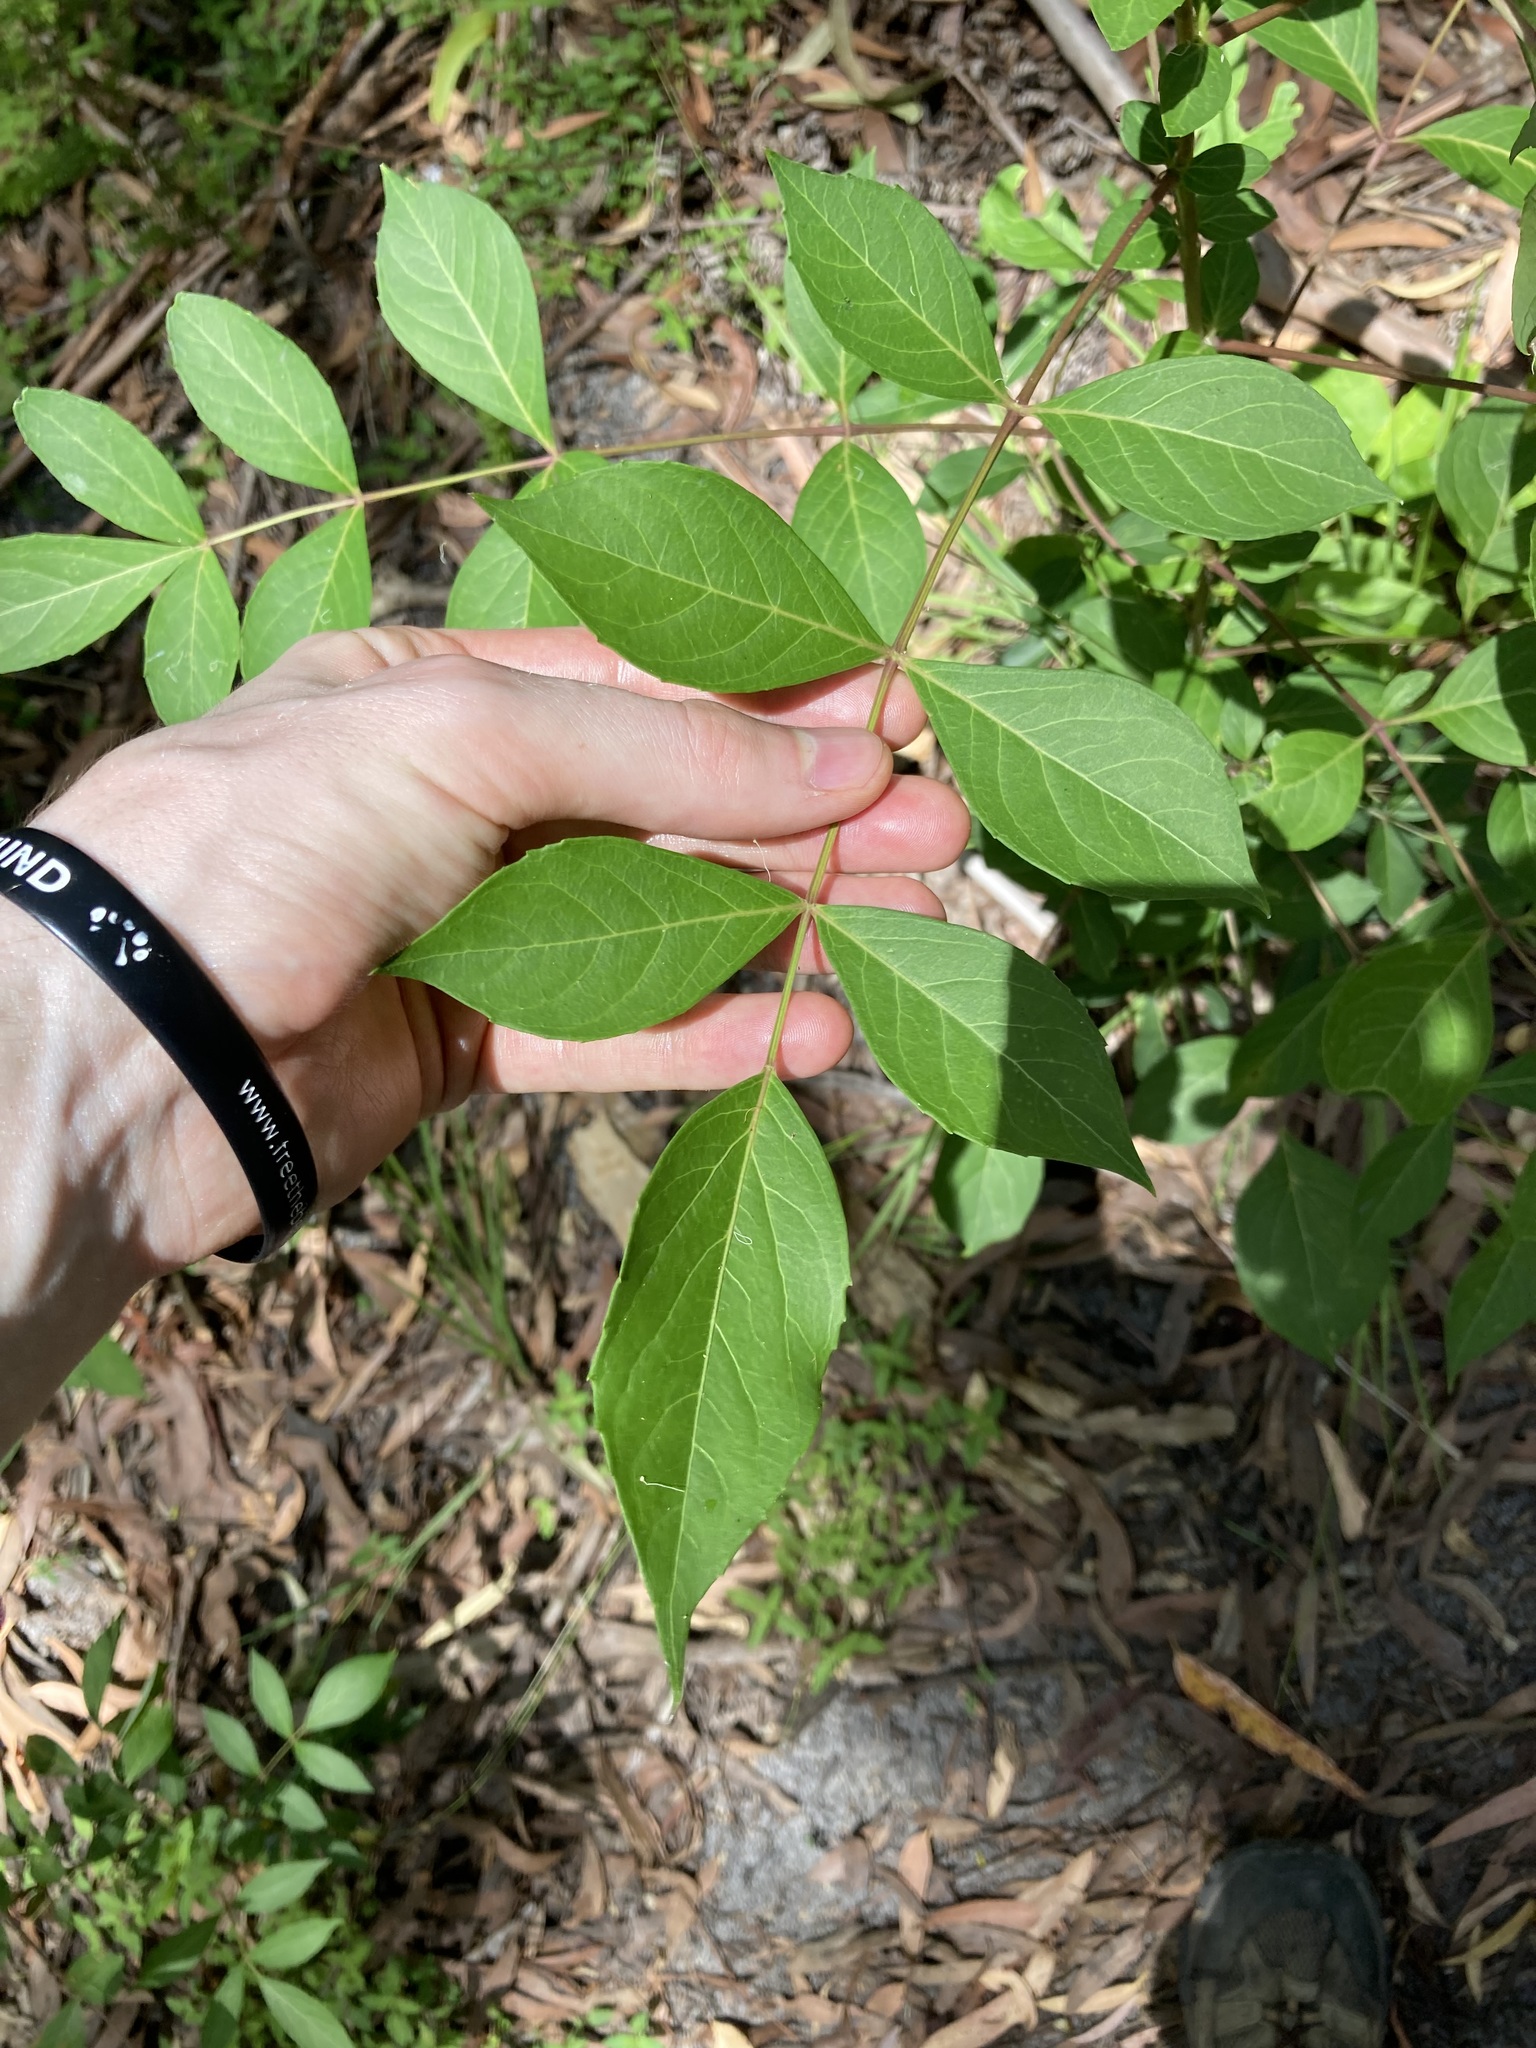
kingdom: Plantae
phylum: Tracheophyta
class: Magnoliopsida
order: Apiales
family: Araliaceae
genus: Polyscias
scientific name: Polyscias sambucifolia
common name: Elderberry-ash
